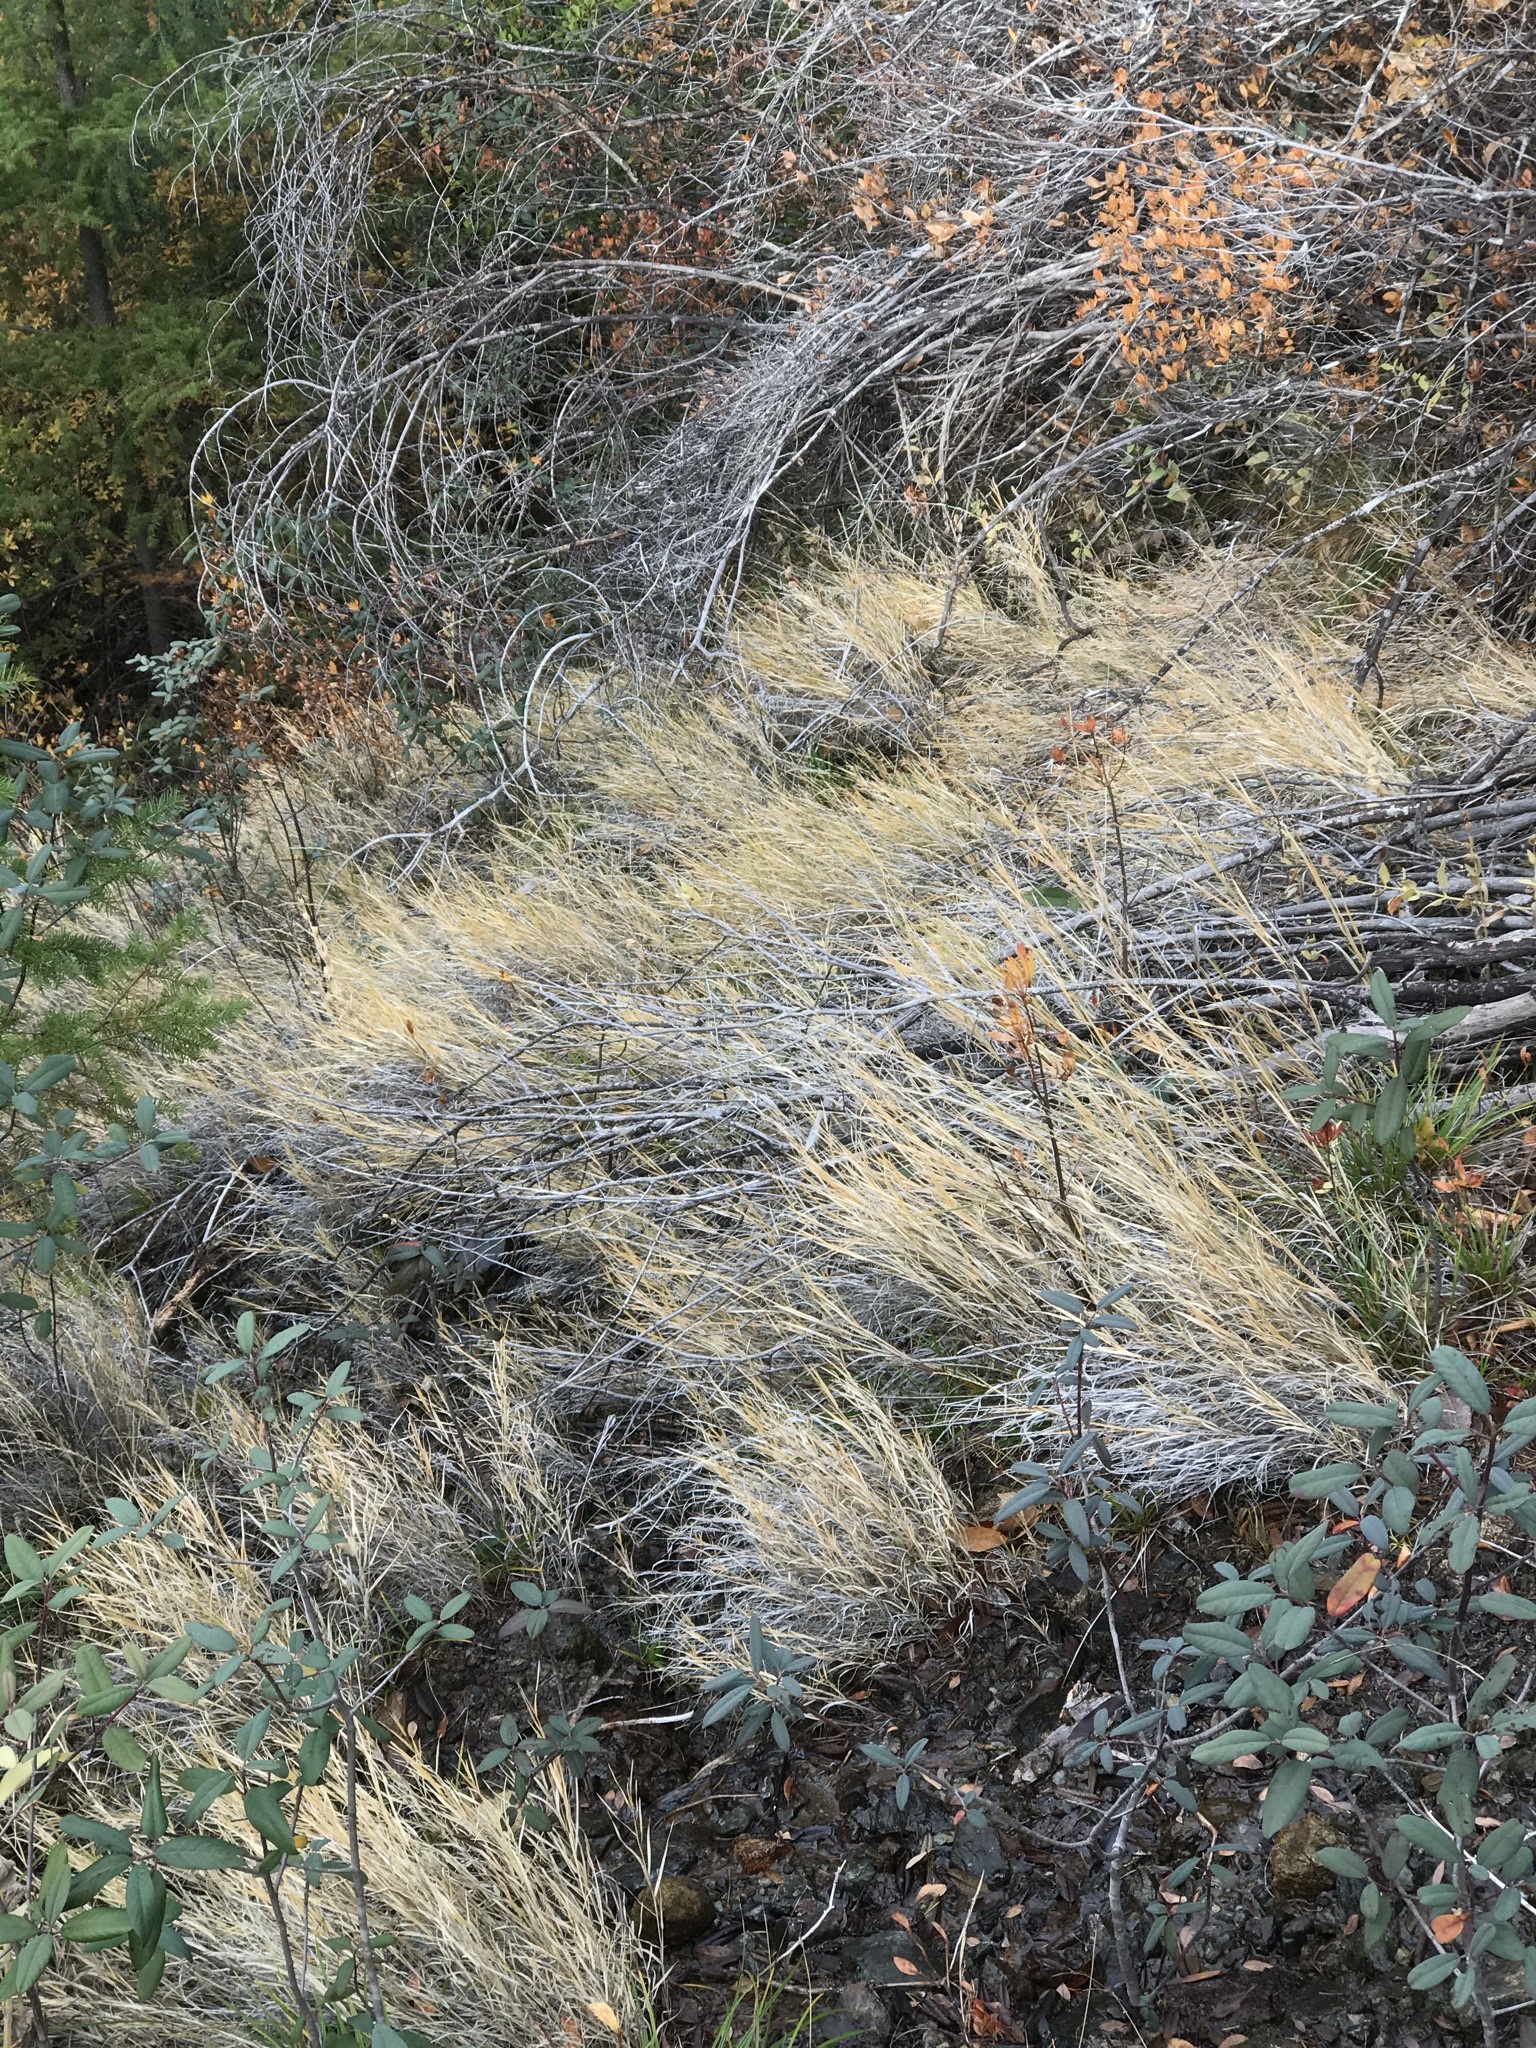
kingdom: Plantae
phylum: Tracheophyta
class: Liliopsida
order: Poales
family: Poaceae
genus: Muhlenbergia
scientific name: Muhlenbergia andina
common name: Foxtail muhly
